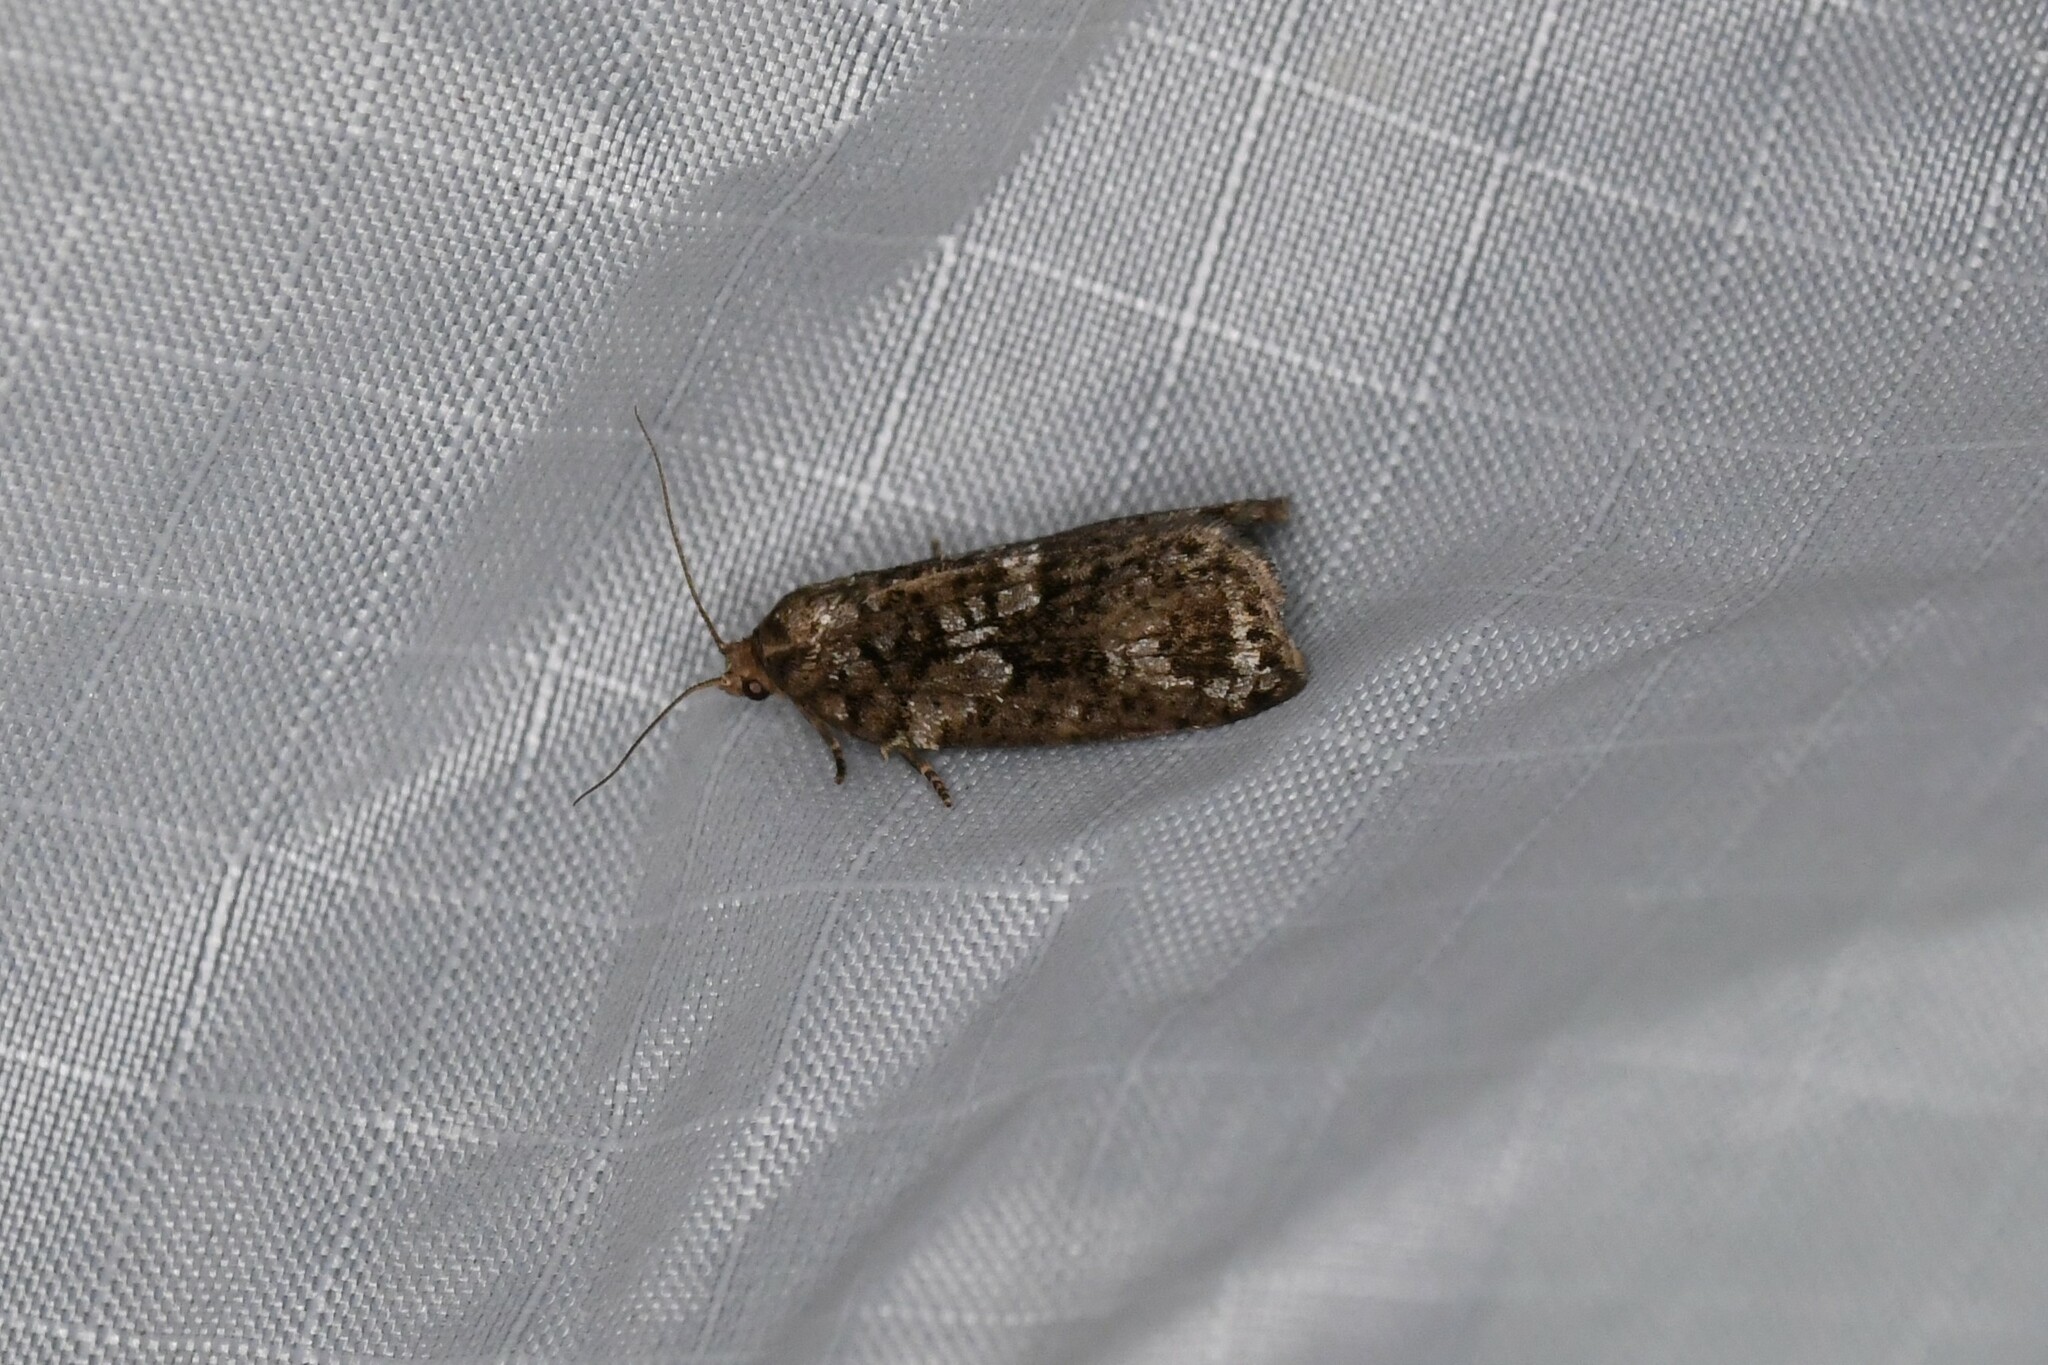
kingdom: Animalia
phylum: Arthropoda
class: Insecta
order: Lepidoptera
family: Tortricidae
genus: Choristoneura
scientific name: Choristoneura fumiferana
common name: Spruce budworm
